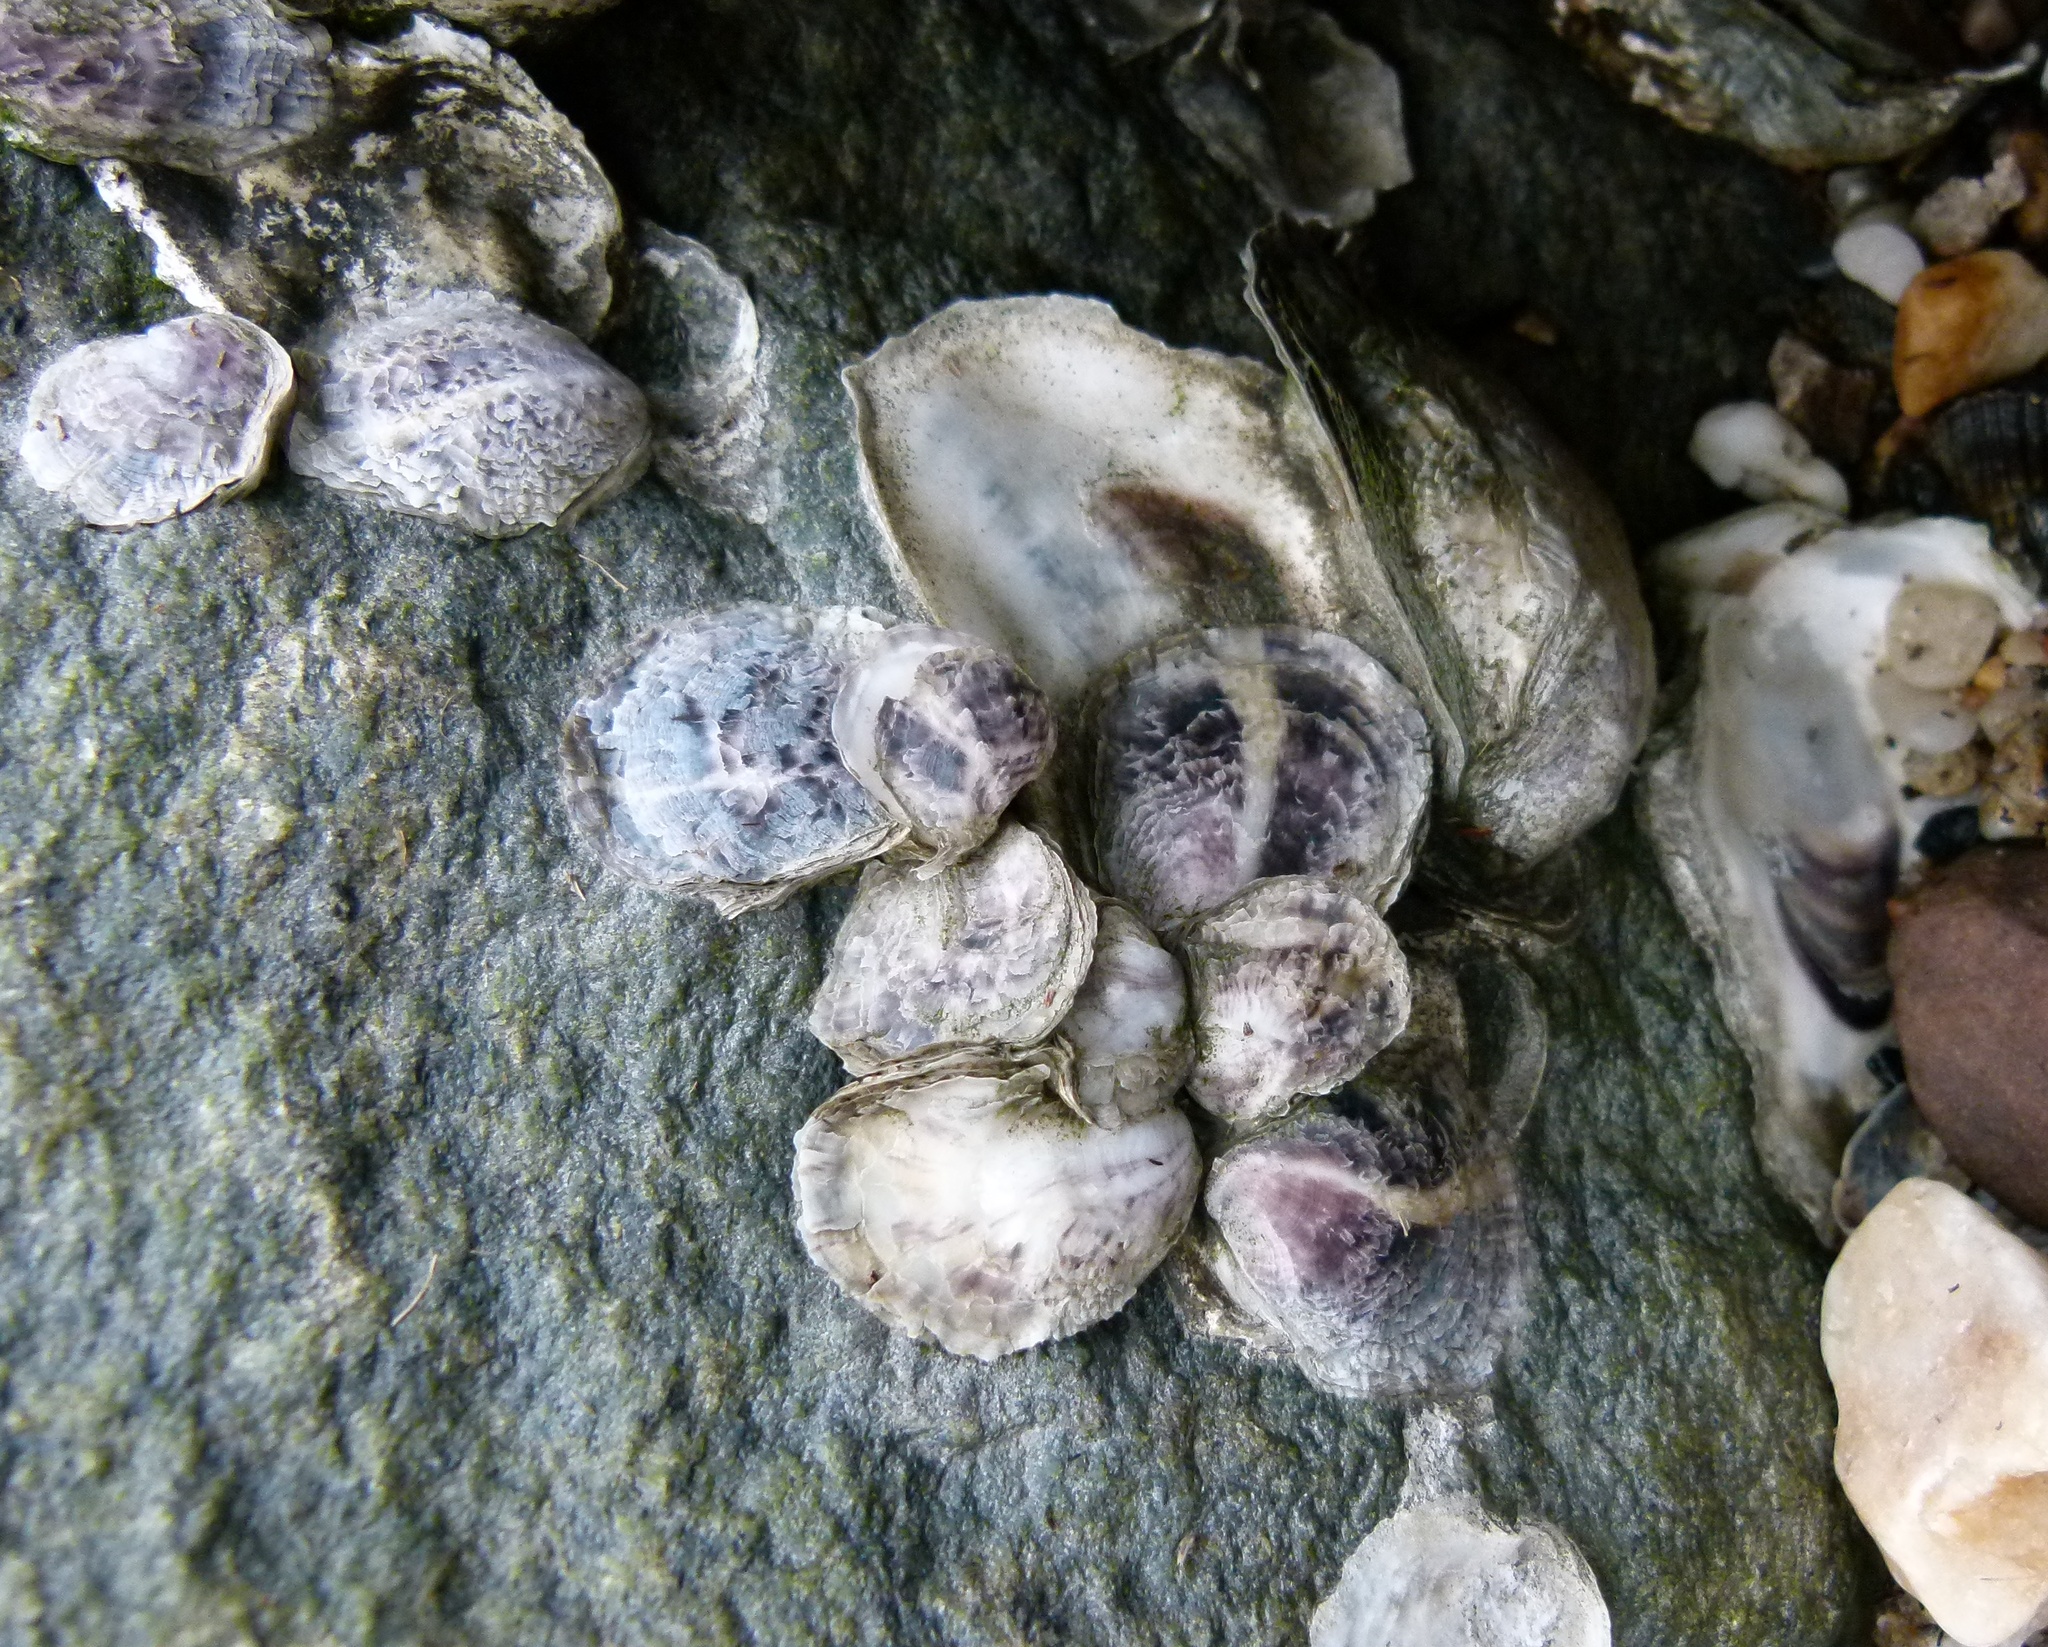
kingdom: Animalia
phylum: Mollusca
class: Bivalvia
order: Ostreida
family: Ostreidae
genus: Crassostrea
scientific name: Crassostrea virginica
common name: American oyster
